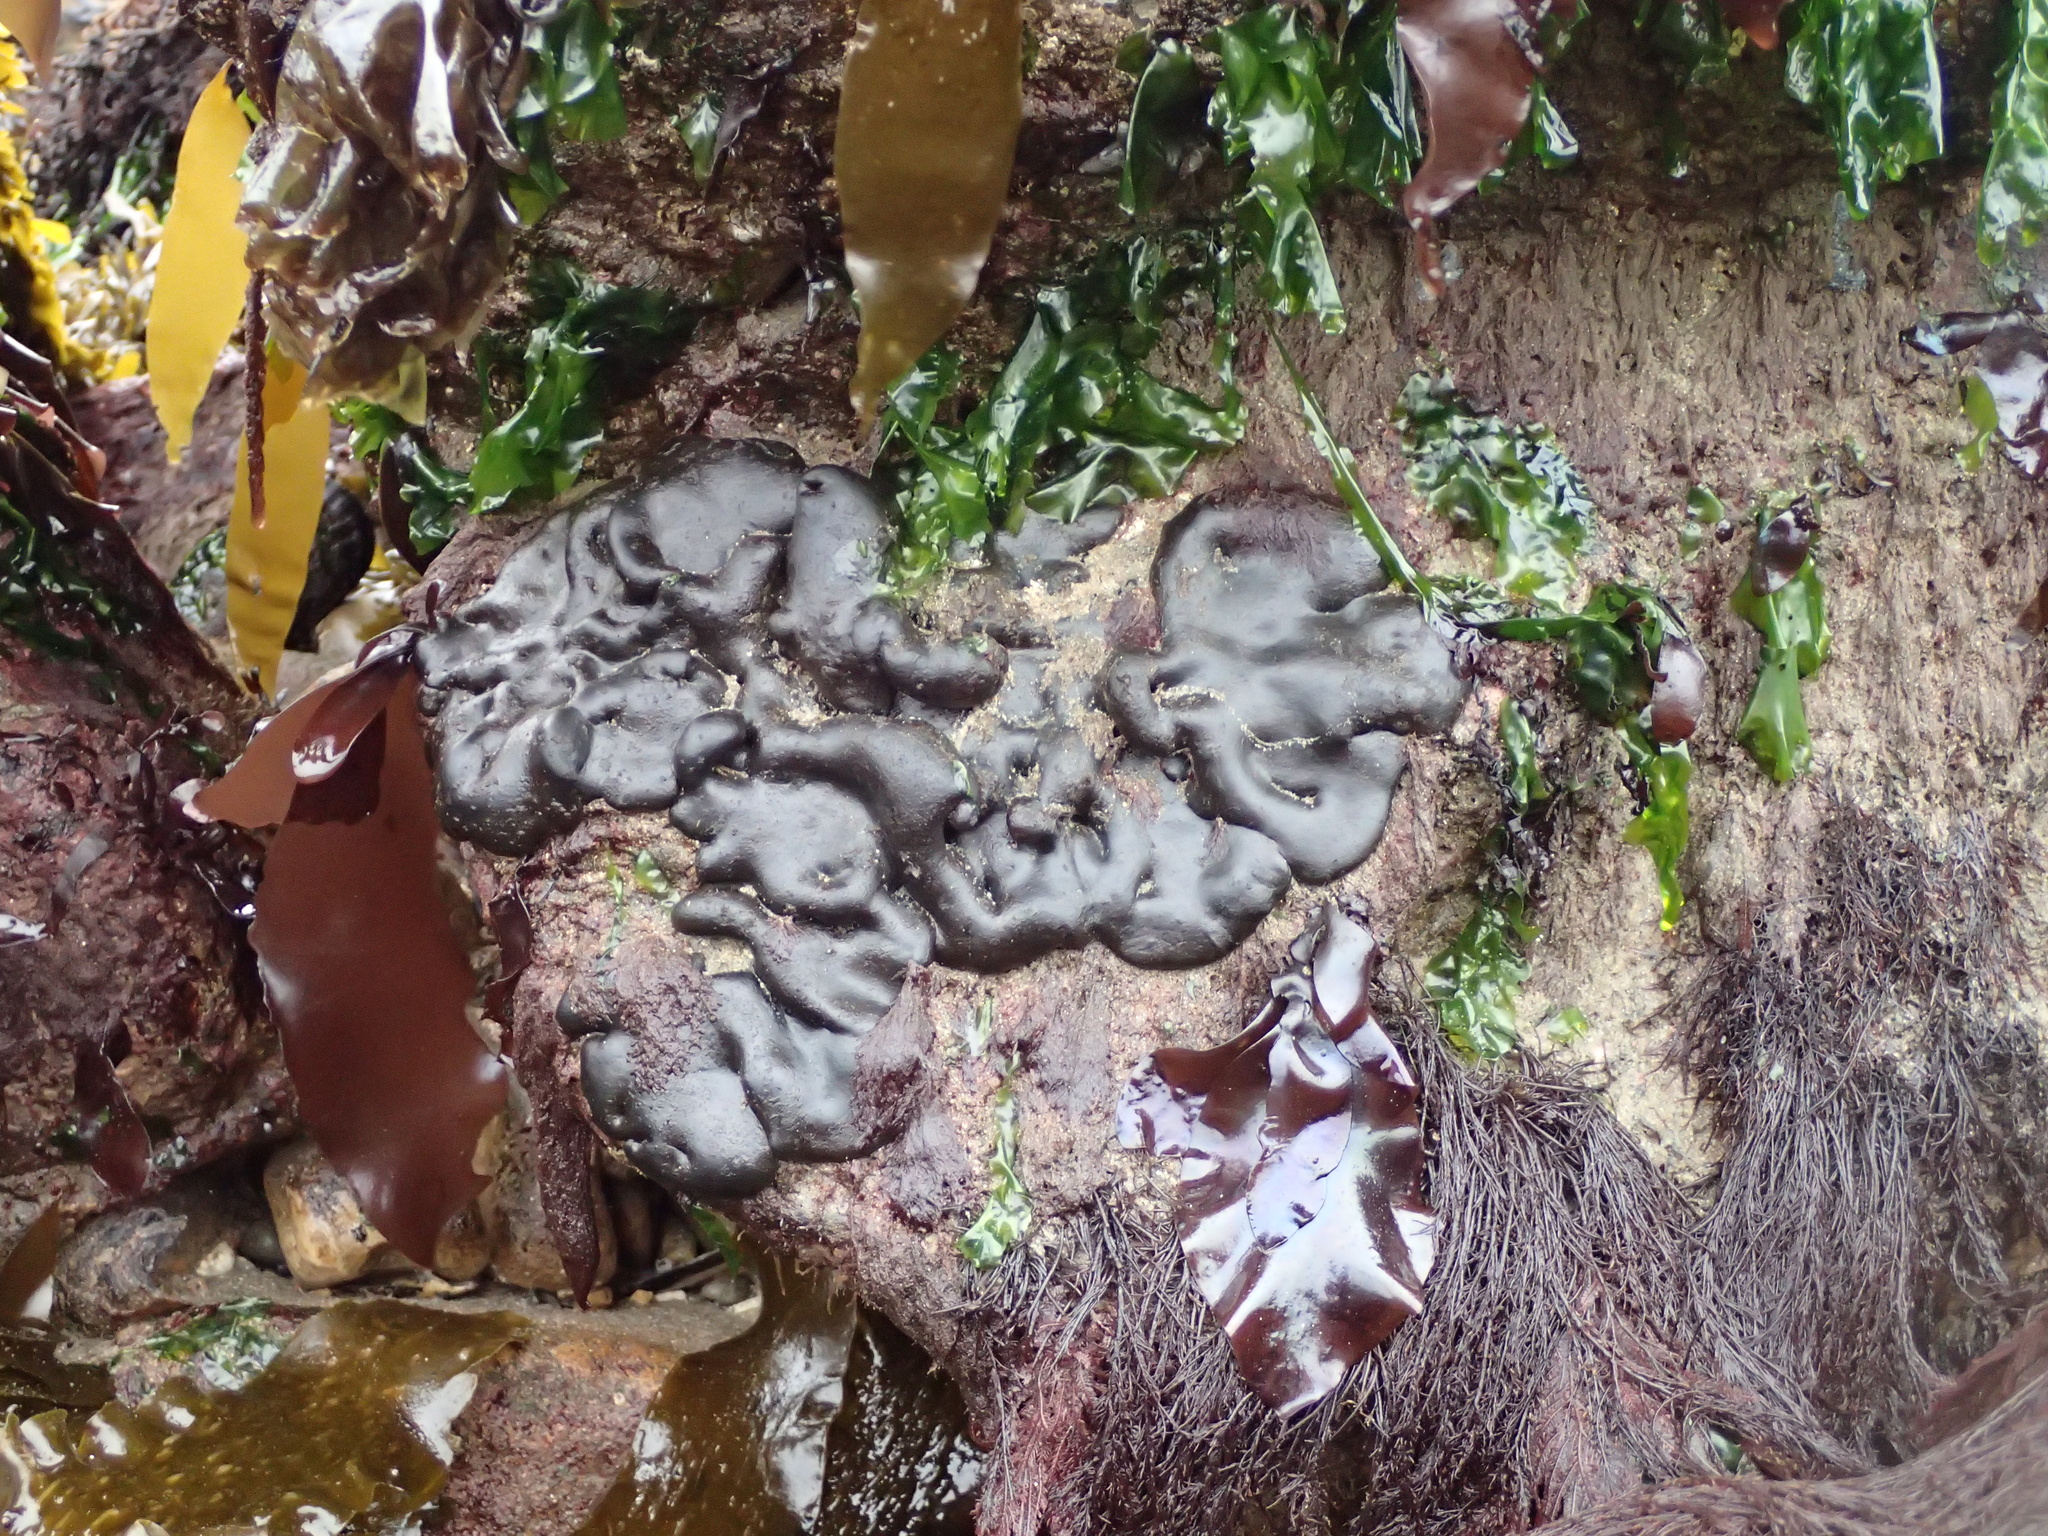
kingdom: Plantae
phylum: Chlorophyta
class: Ulvophyceae
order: Bryopsidales
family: Codiaceae
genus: Codium
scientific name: Codium setchellii
